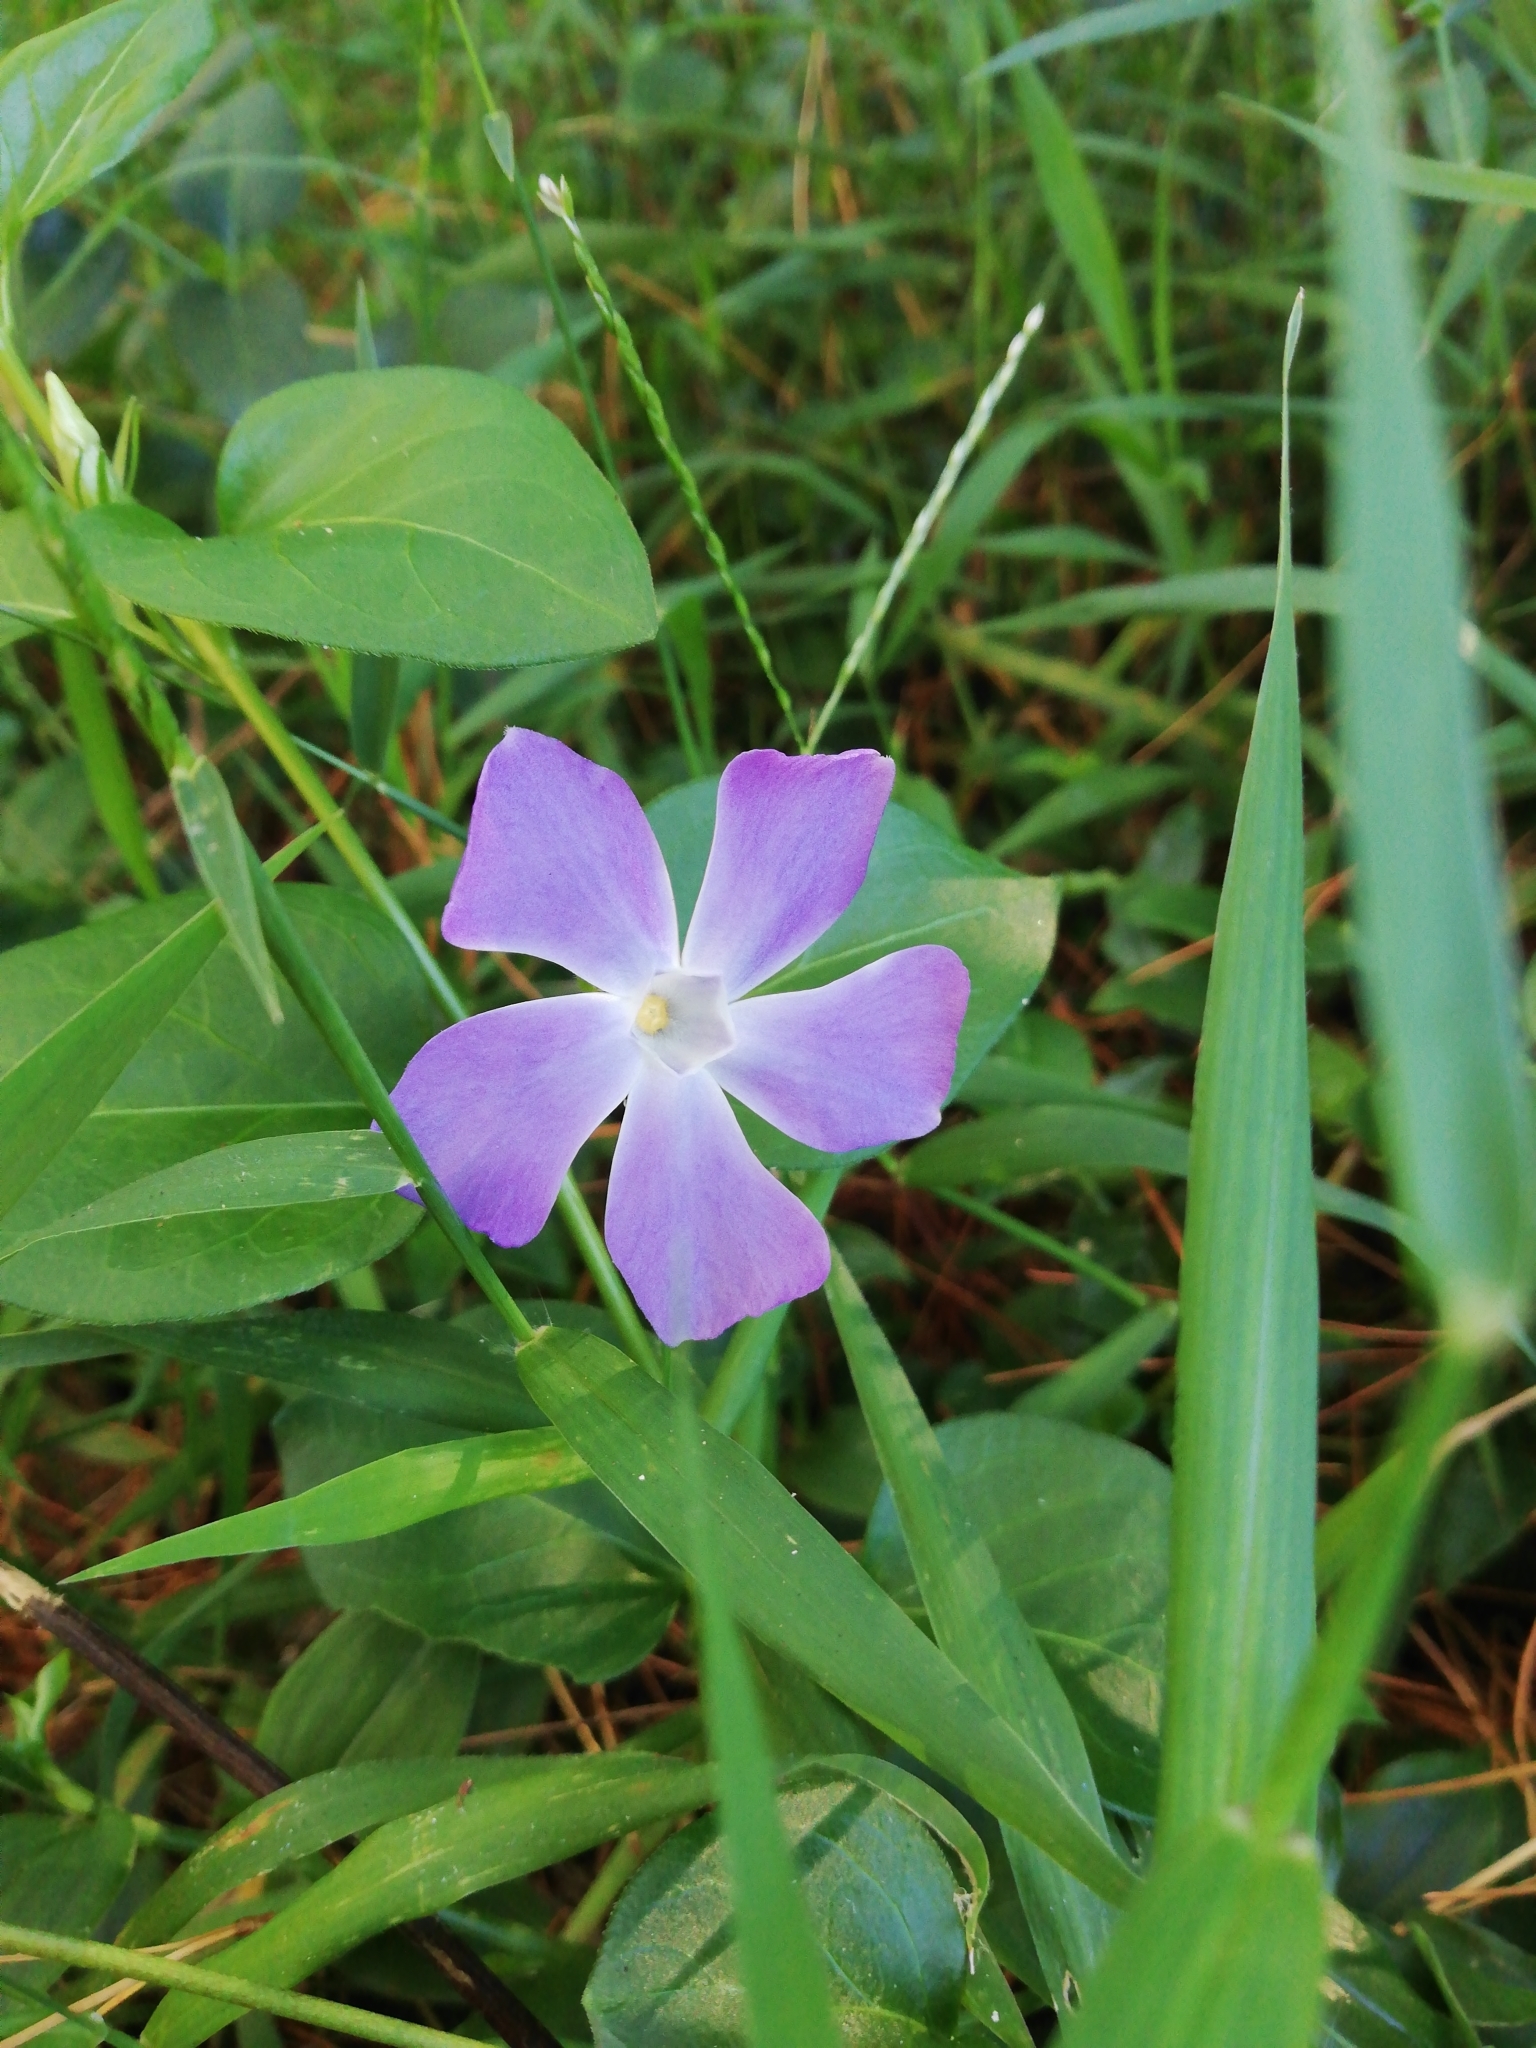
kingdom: Plantae
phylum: Tracheophyta
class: Magnoliopsida
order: Gentianales
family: Apocynaceae
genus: Vinca
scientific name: Vinca major
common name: Greater periwinkle
